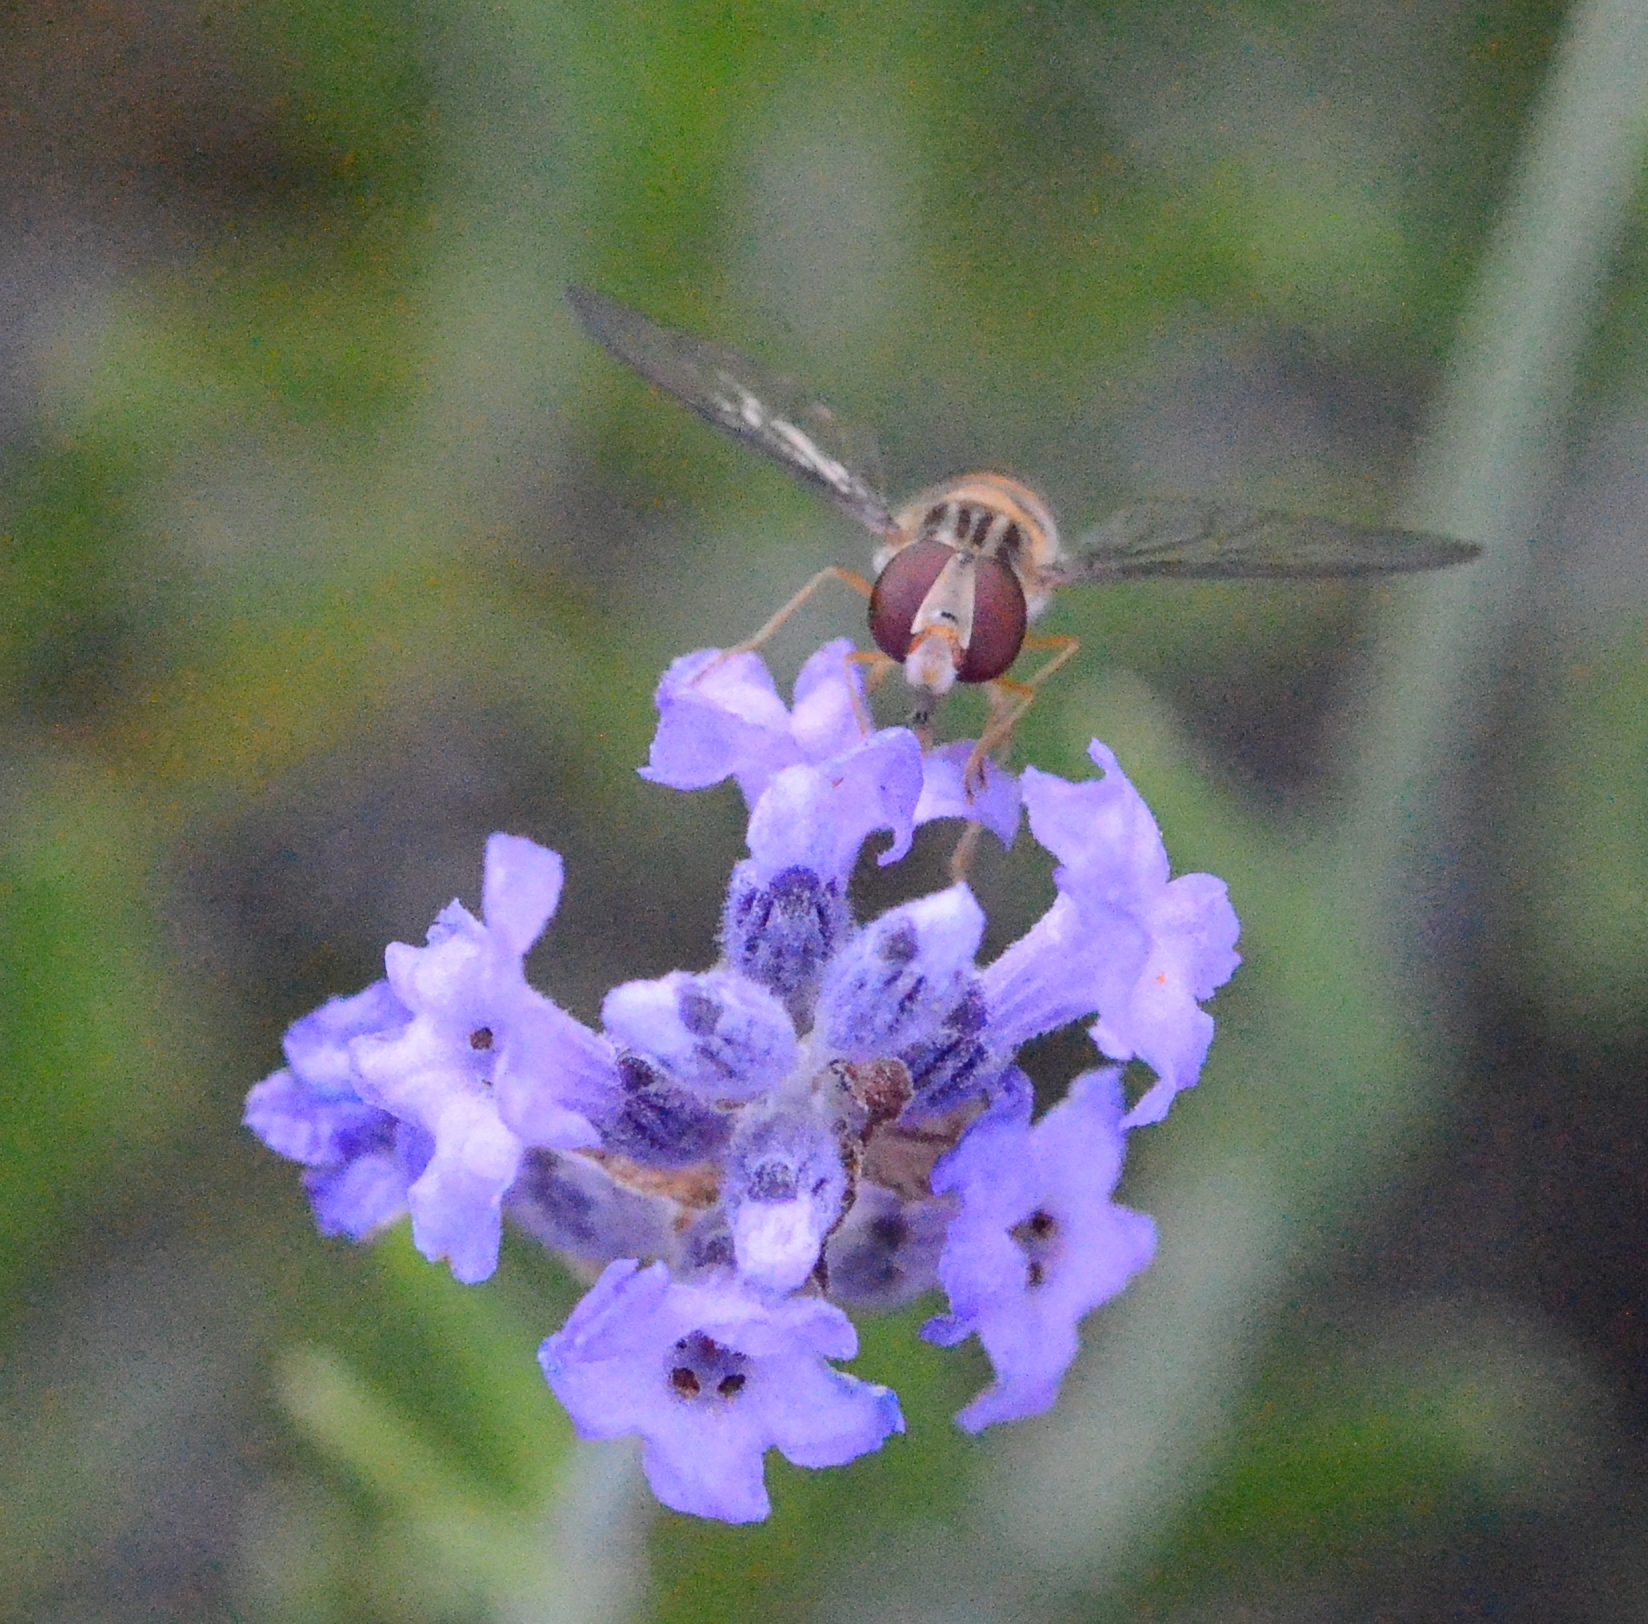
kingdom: Animalia
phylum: Arthropoda
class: Insecta
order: Diptera
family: Syrphidae
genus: Episyrphus
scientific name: Episyrphus balteatus
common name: Marmalade hoverfly
